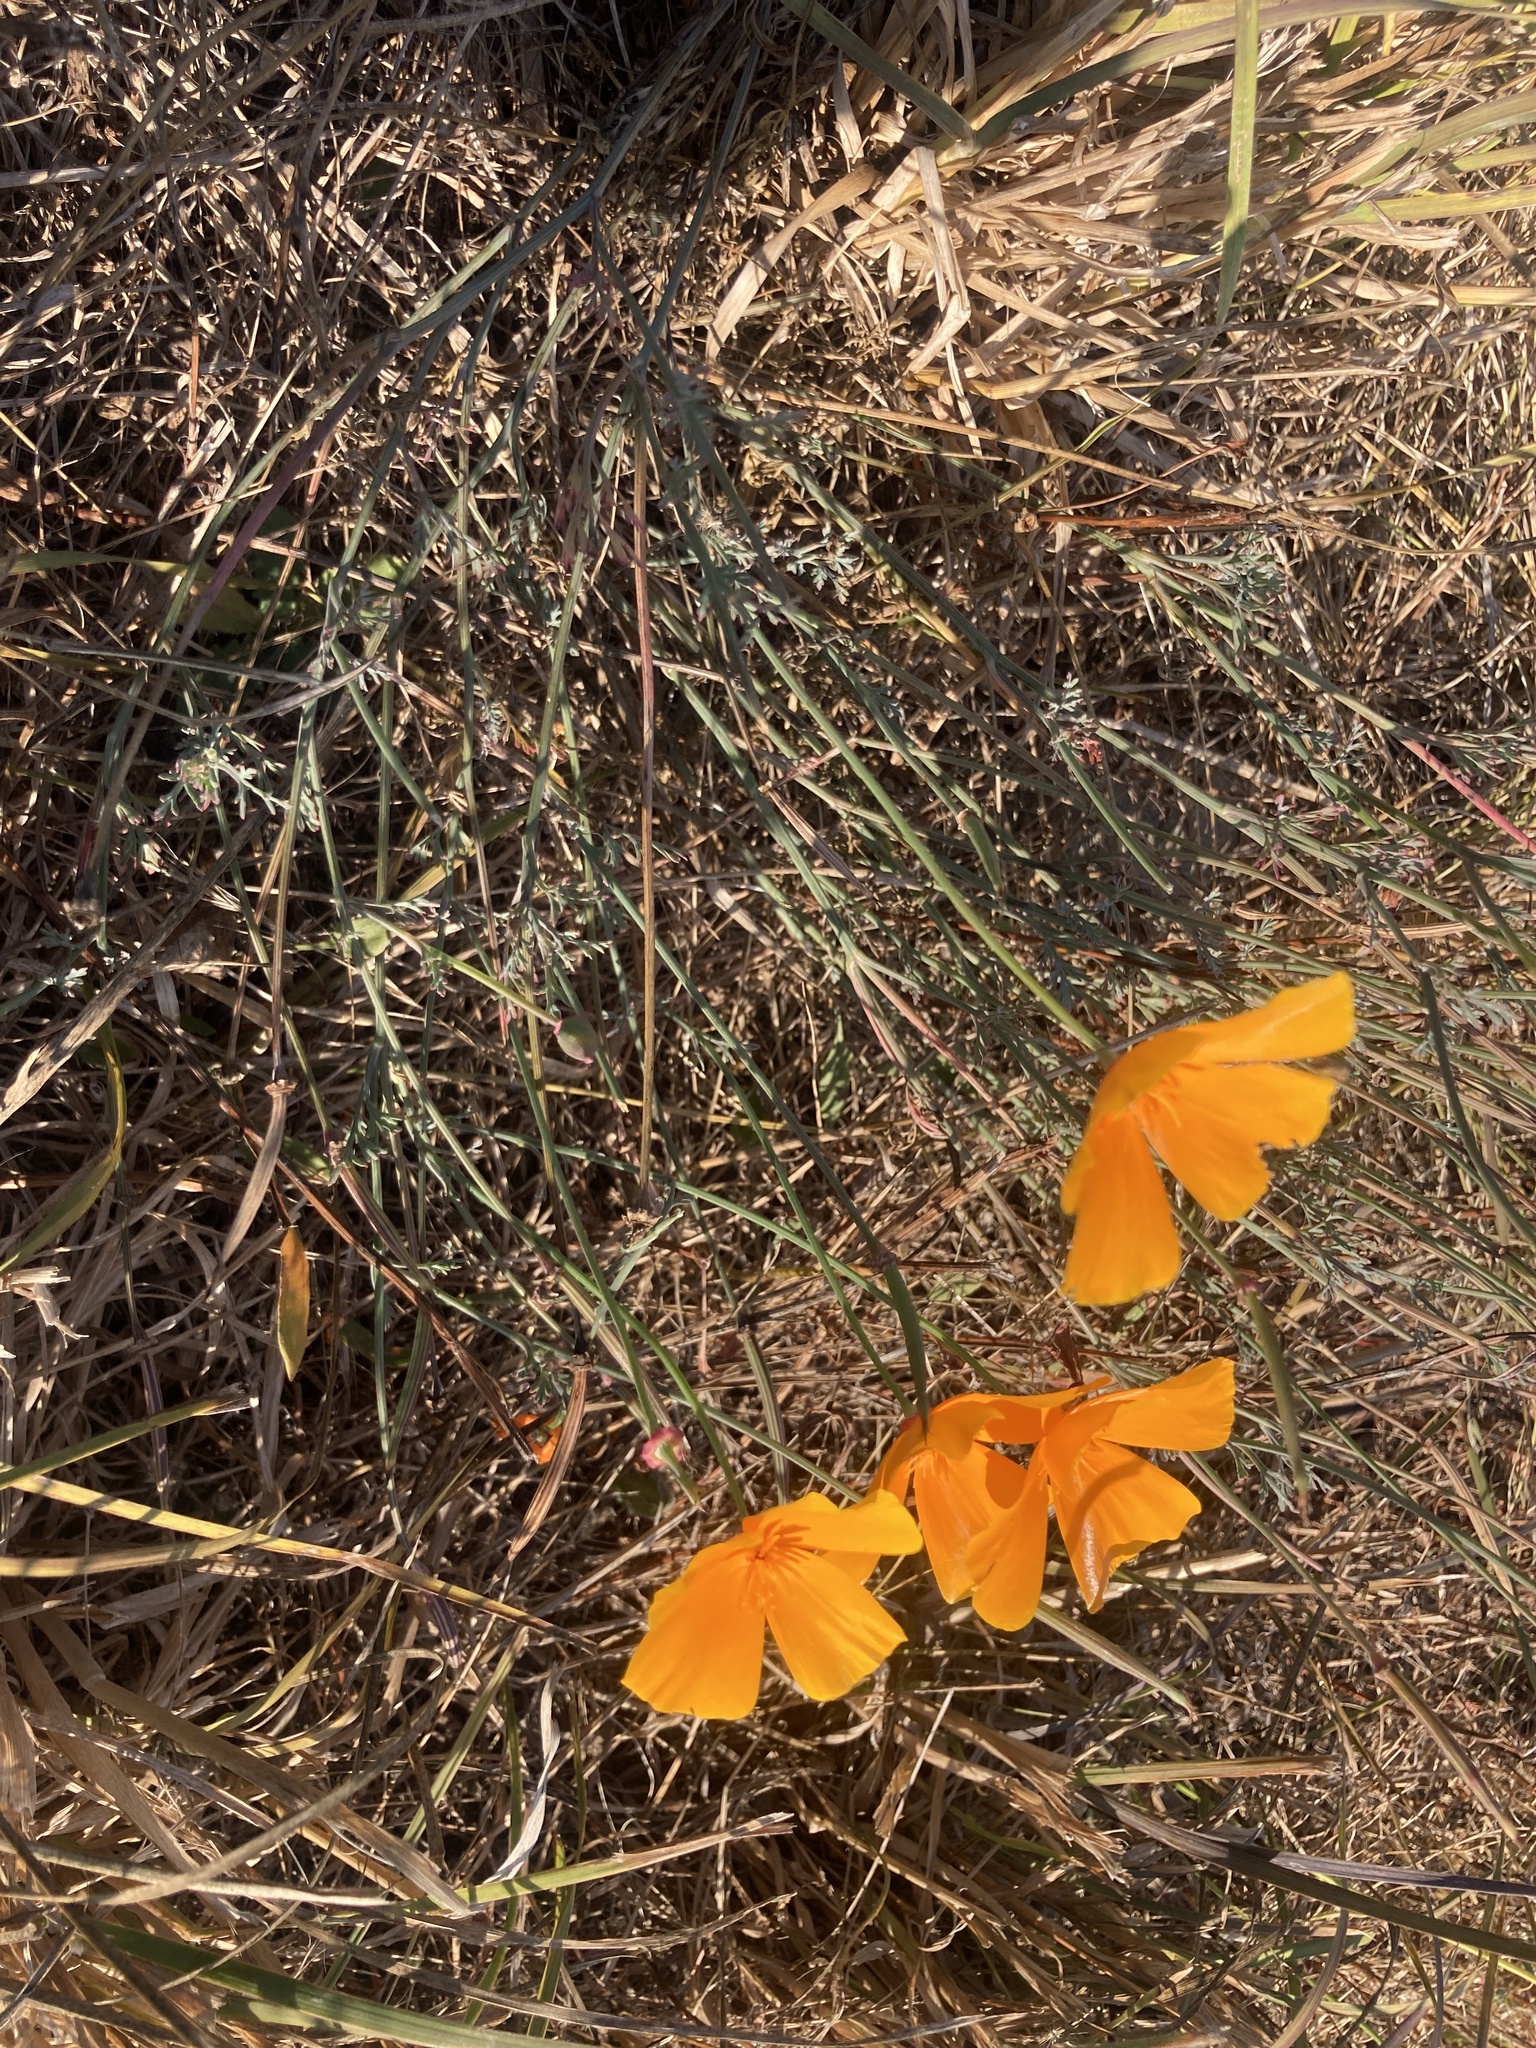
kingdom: Plantae
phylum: Tracheophyta
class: Magnoliopsida
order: Ranunculales
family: Papaveraceae
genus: Eschscholzia
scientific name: Eschscholzia californica
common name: California poppy
